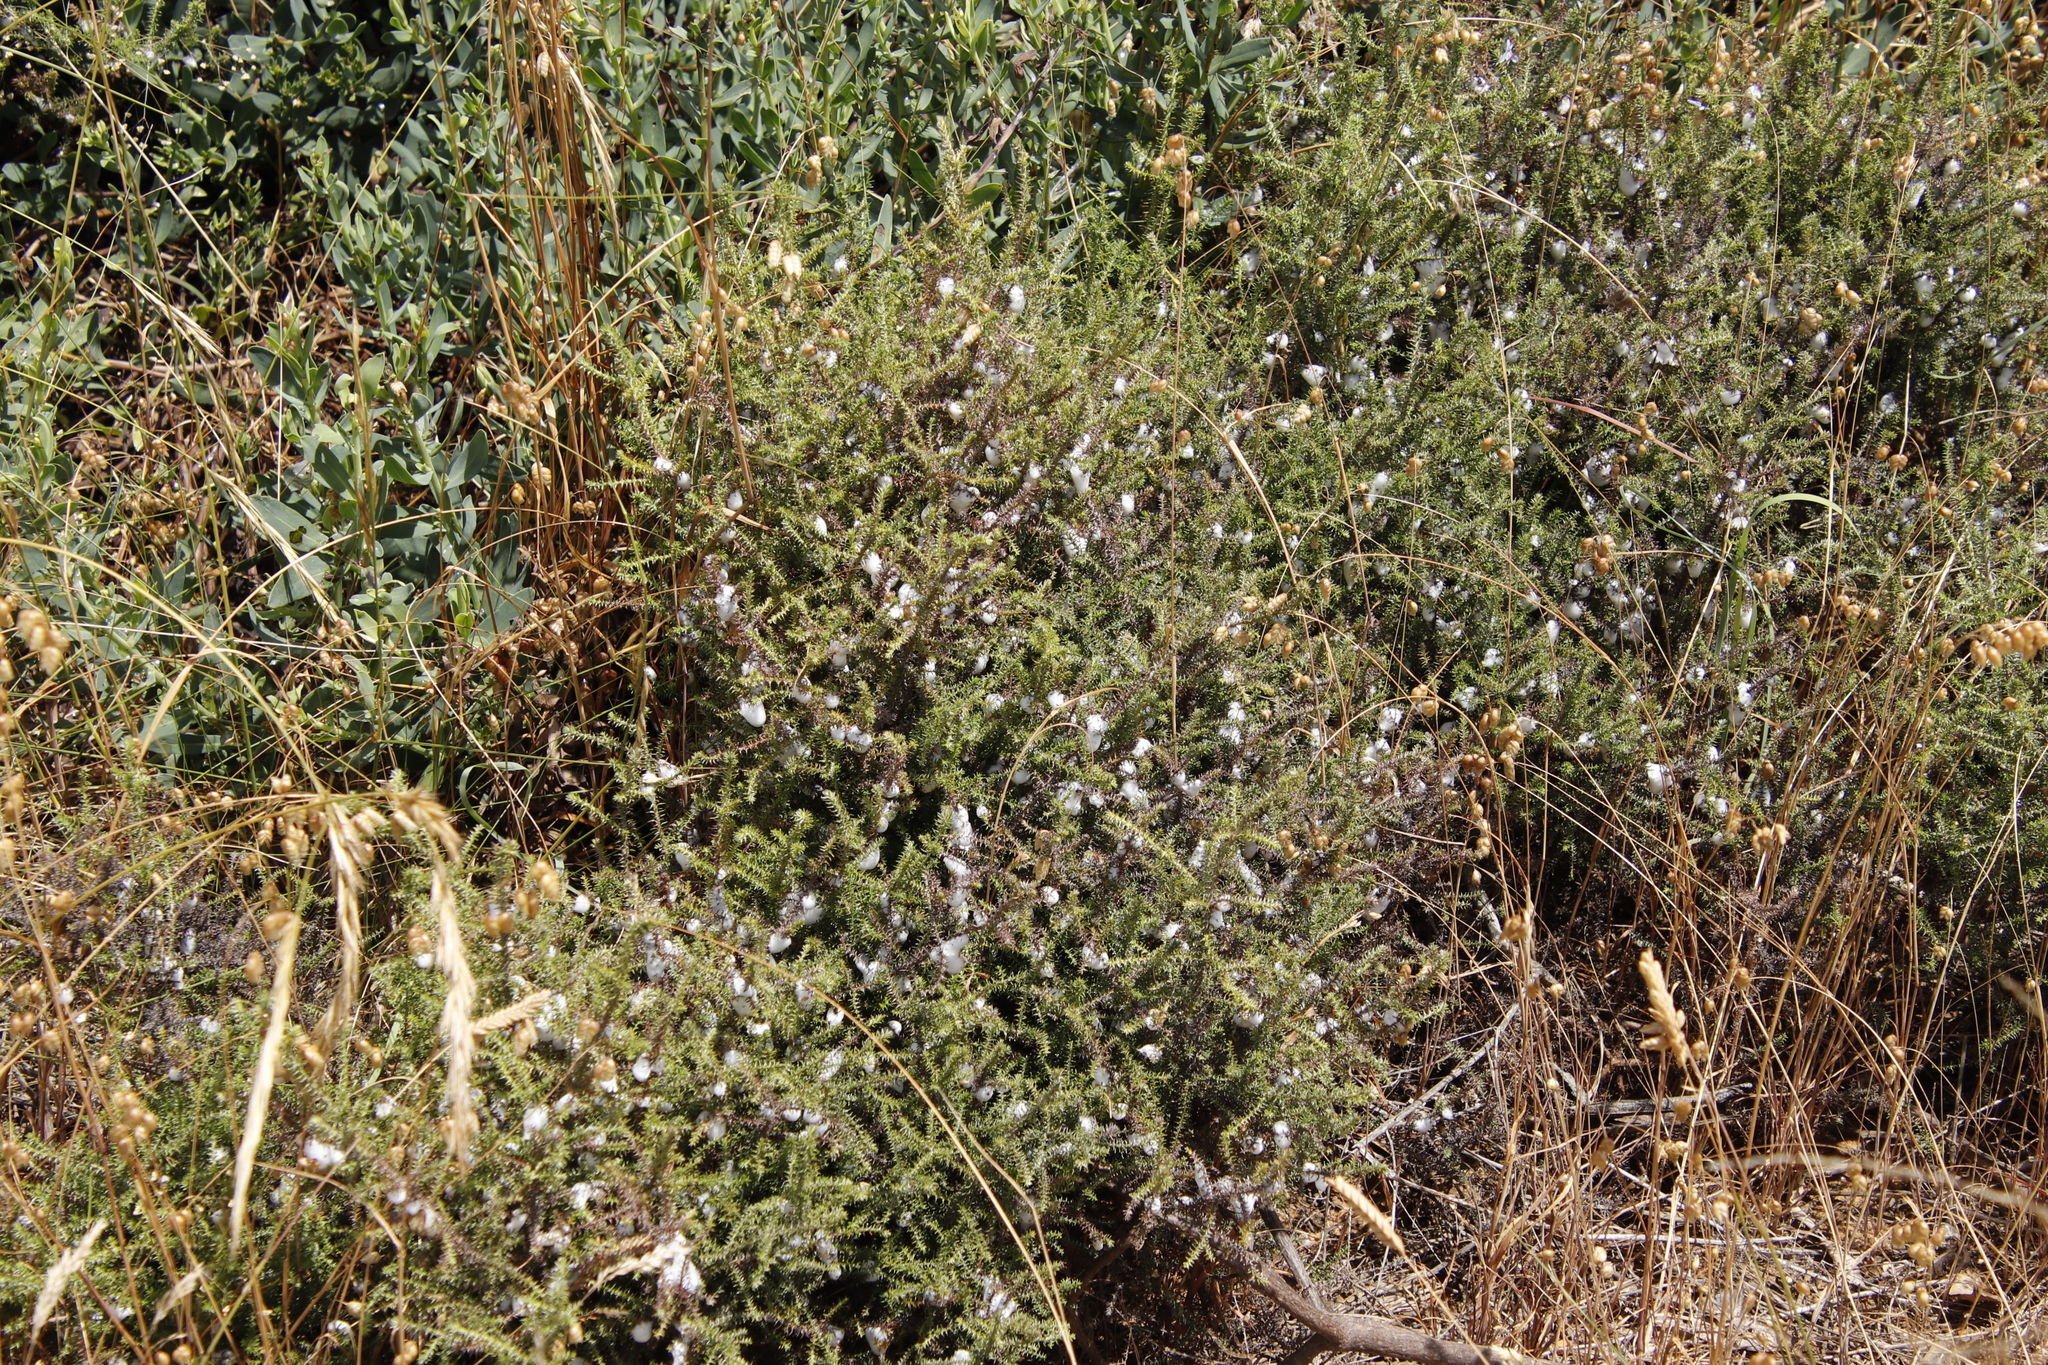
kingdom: Plantae
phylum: Tracheophyta
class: Magnoliopsida
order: Asterales
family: Asteraceae
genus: Seriphium
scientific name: Seriphium cinereum
